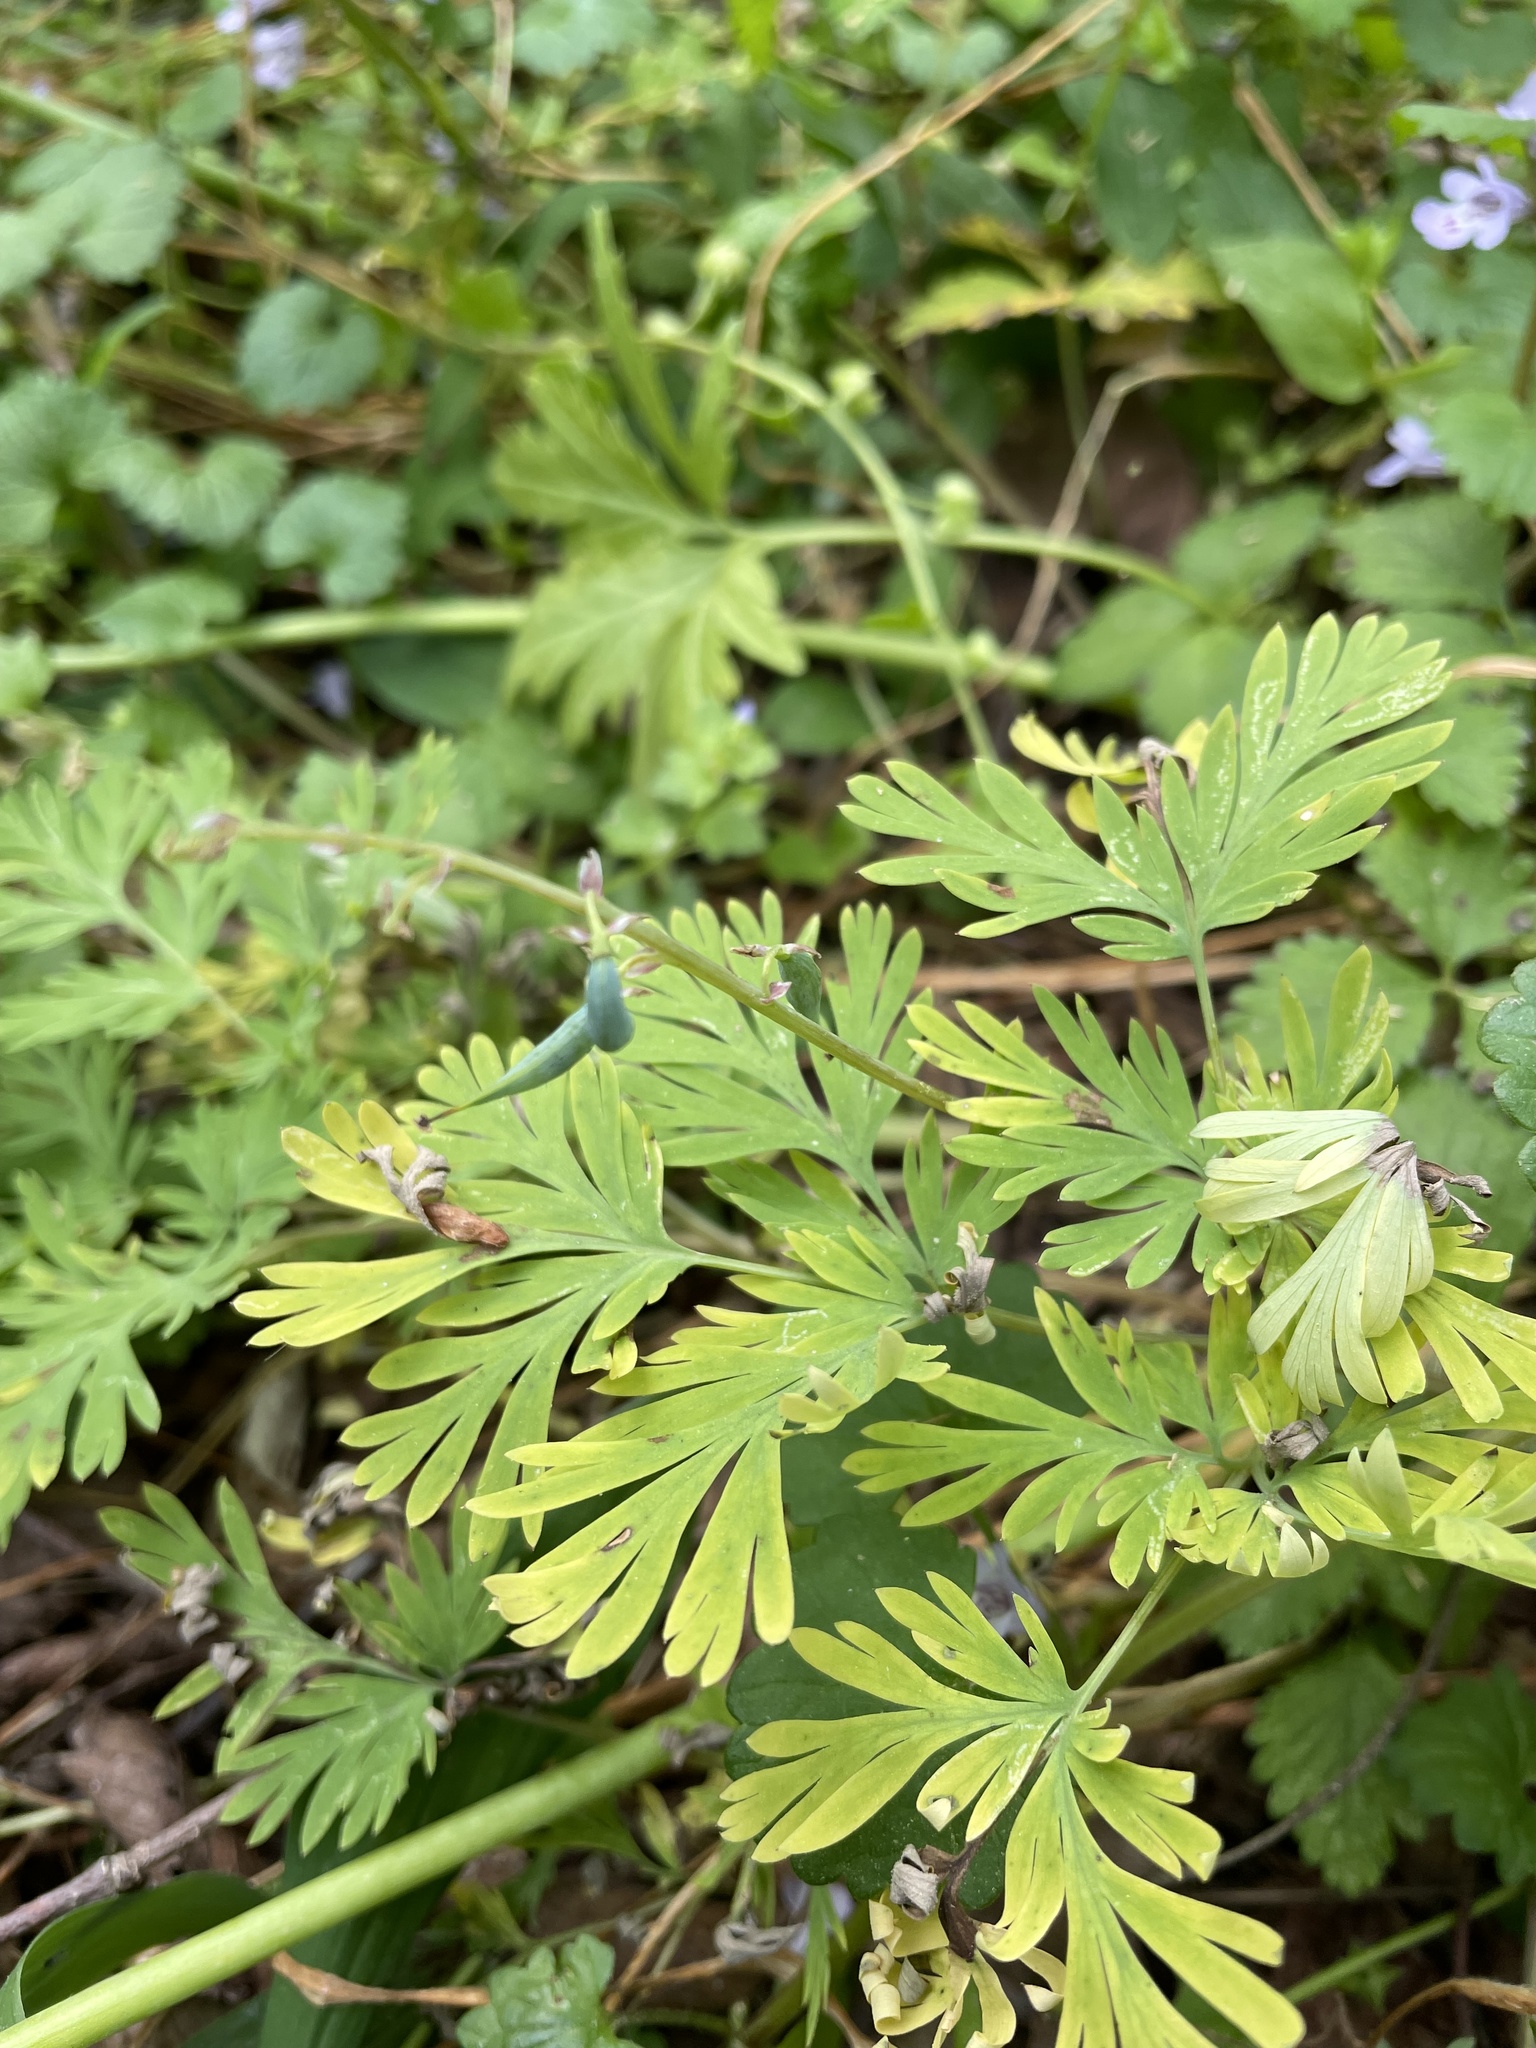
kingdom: Plantae
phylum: Tracheophyta
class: Magnoliopsida
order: Ranunculales
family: Papaveraceae
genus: Dicentra
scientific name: Dicentra cucullaria
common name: Dutchman's breeches
